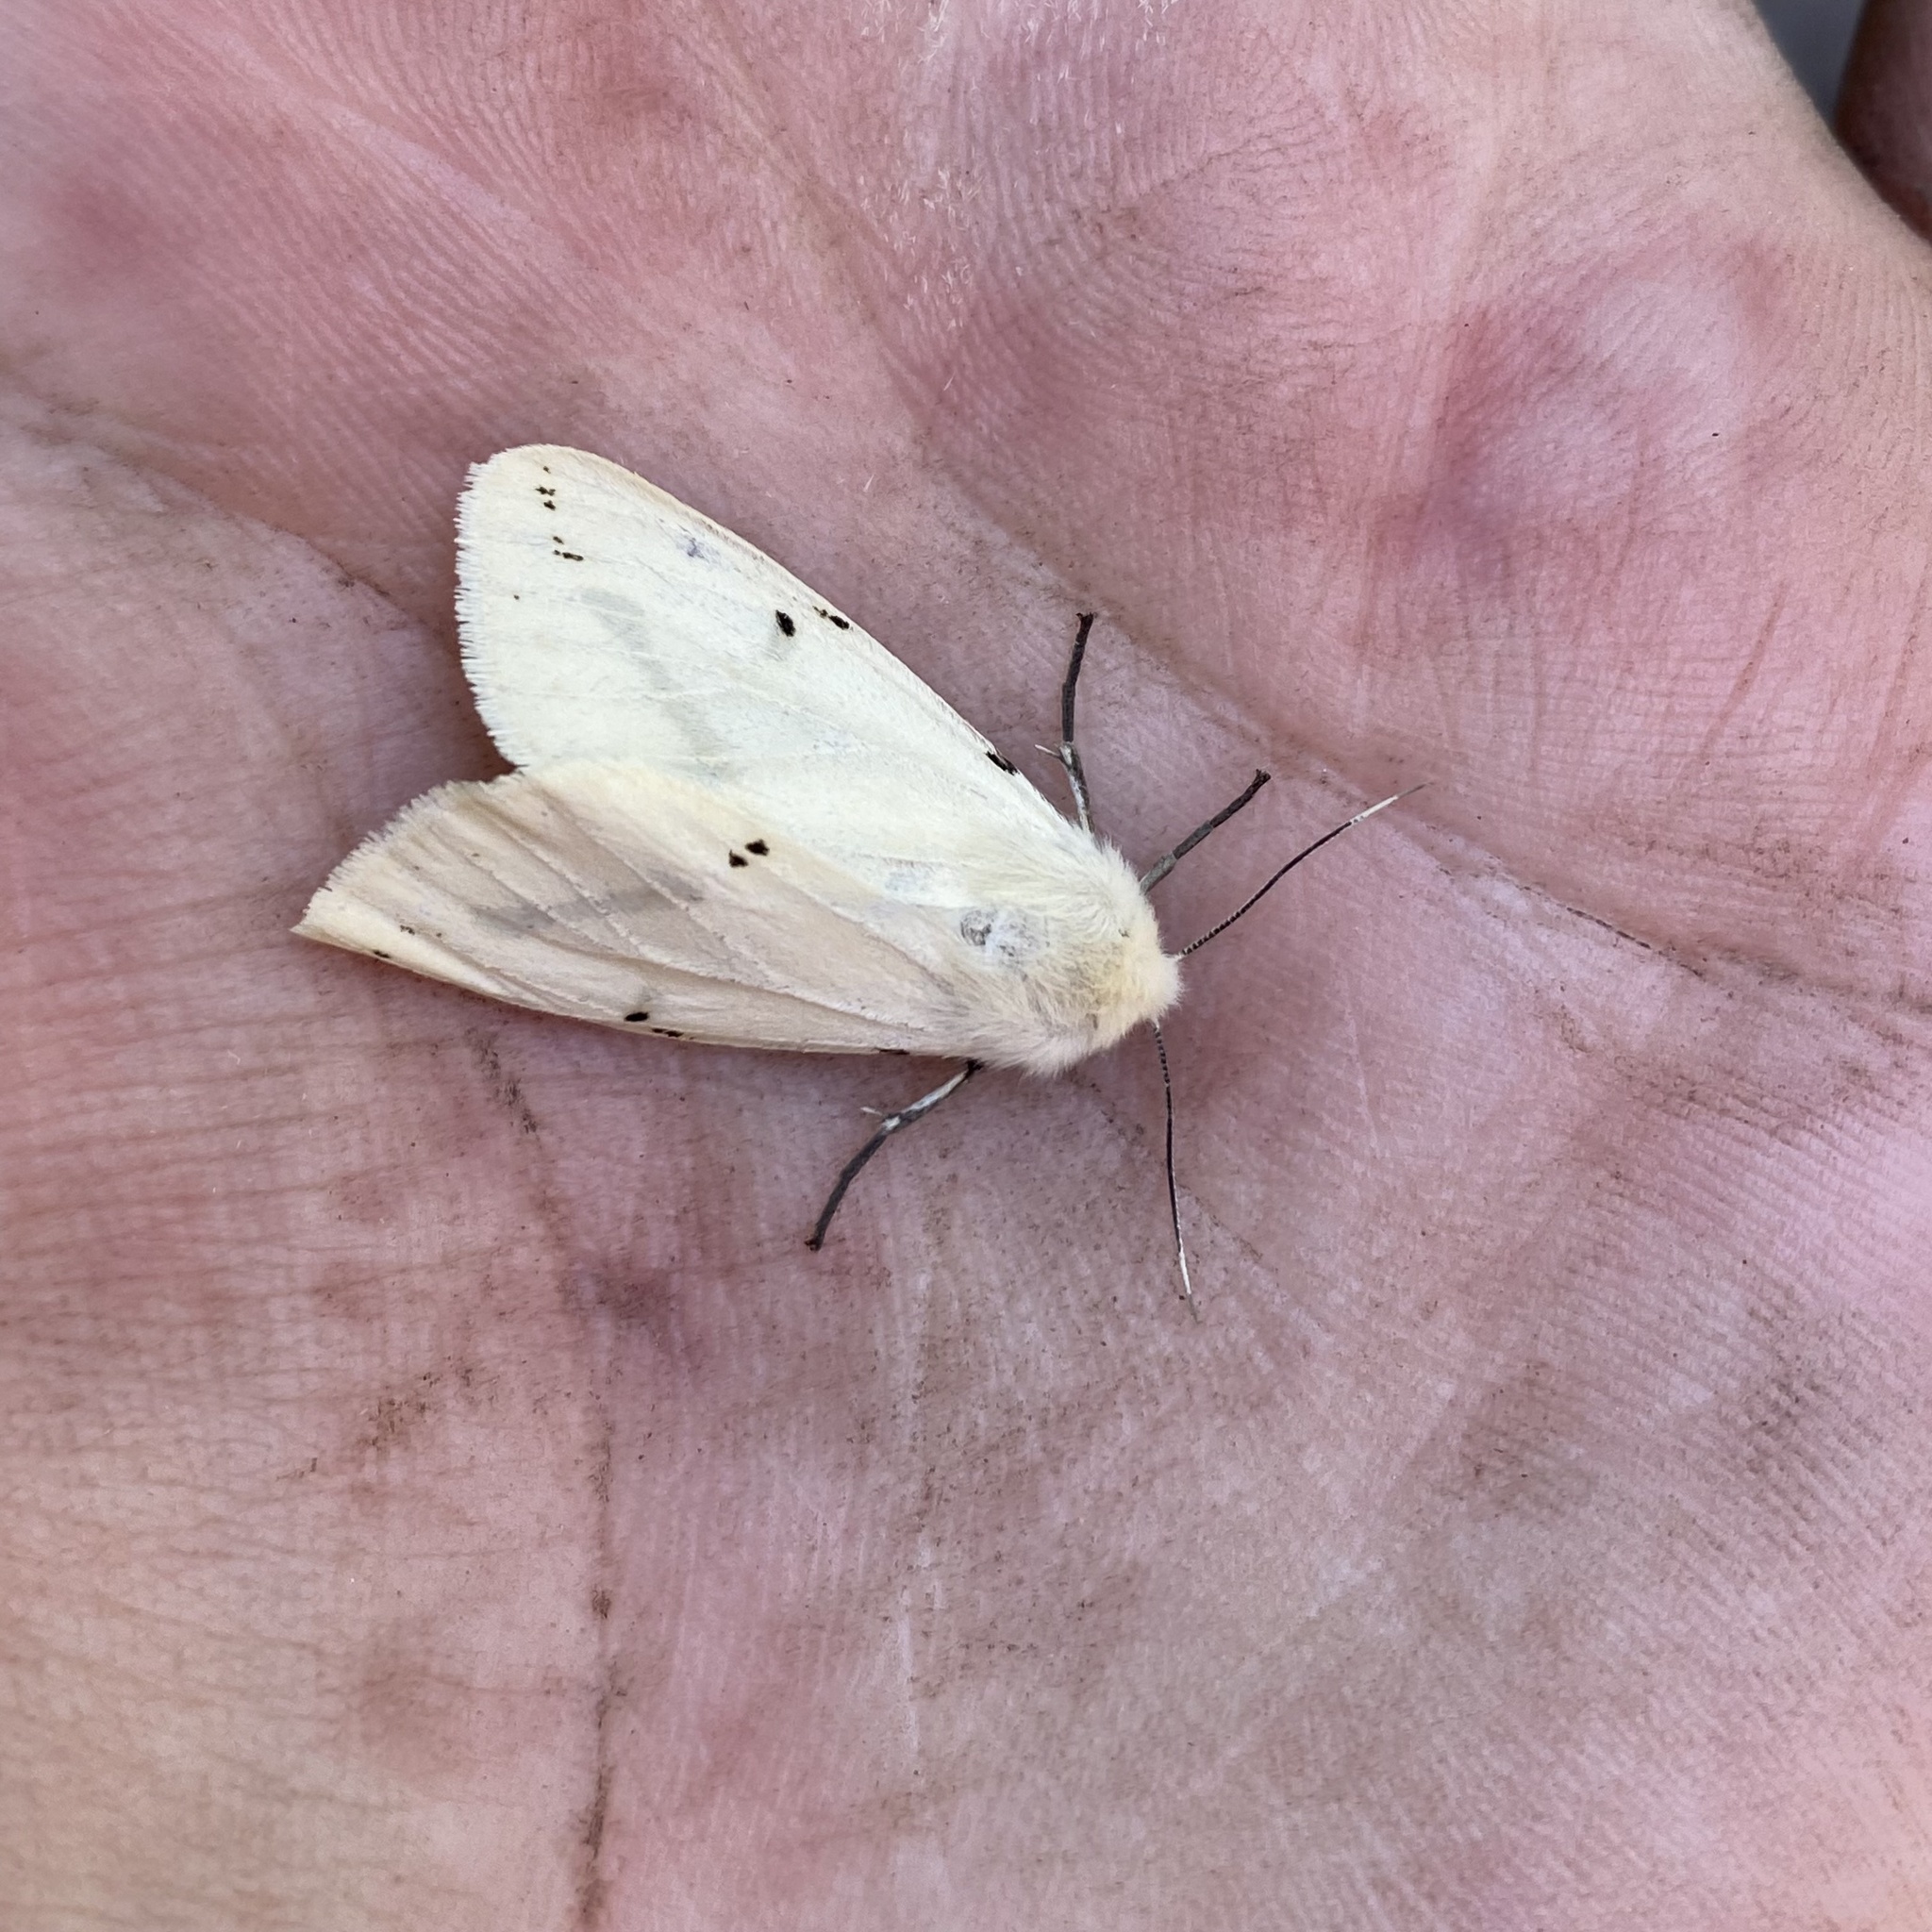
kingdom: Animalia
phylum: Arthropoda
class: Insecta
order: Lepidoptera
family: Erebidae
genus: Spilarctia
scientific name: Spilarctia lutea
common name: Buff ermine
